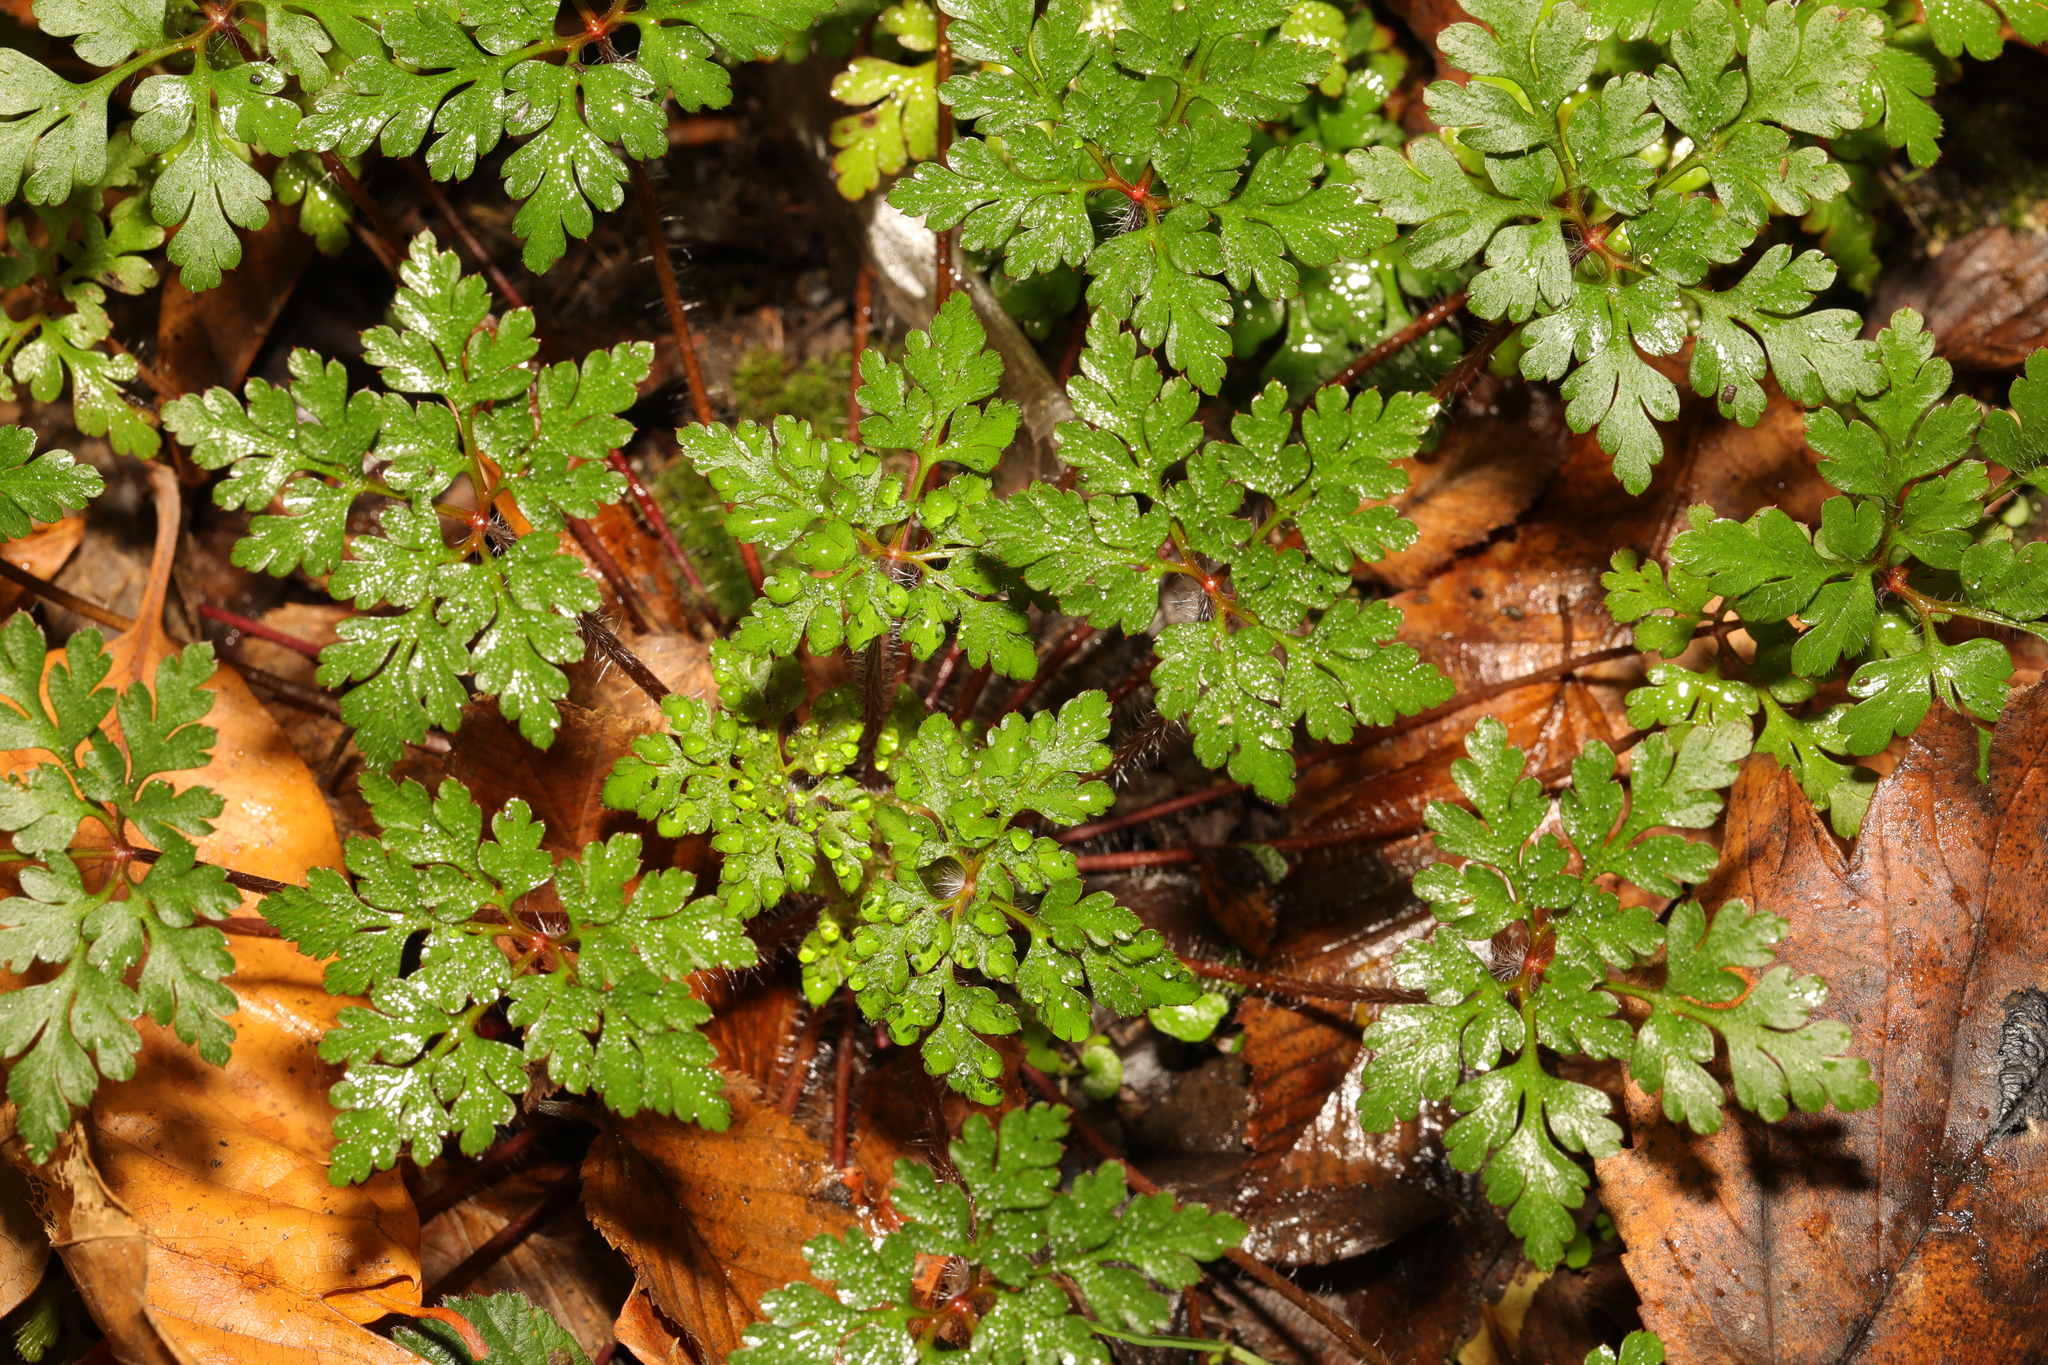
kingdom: Plantae
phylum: Tracheophyta
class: Magnoliopsida
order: Geraniales
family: Geraniaceae
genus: Geranium
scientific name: Geranium robertianum
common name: Herb-robert
